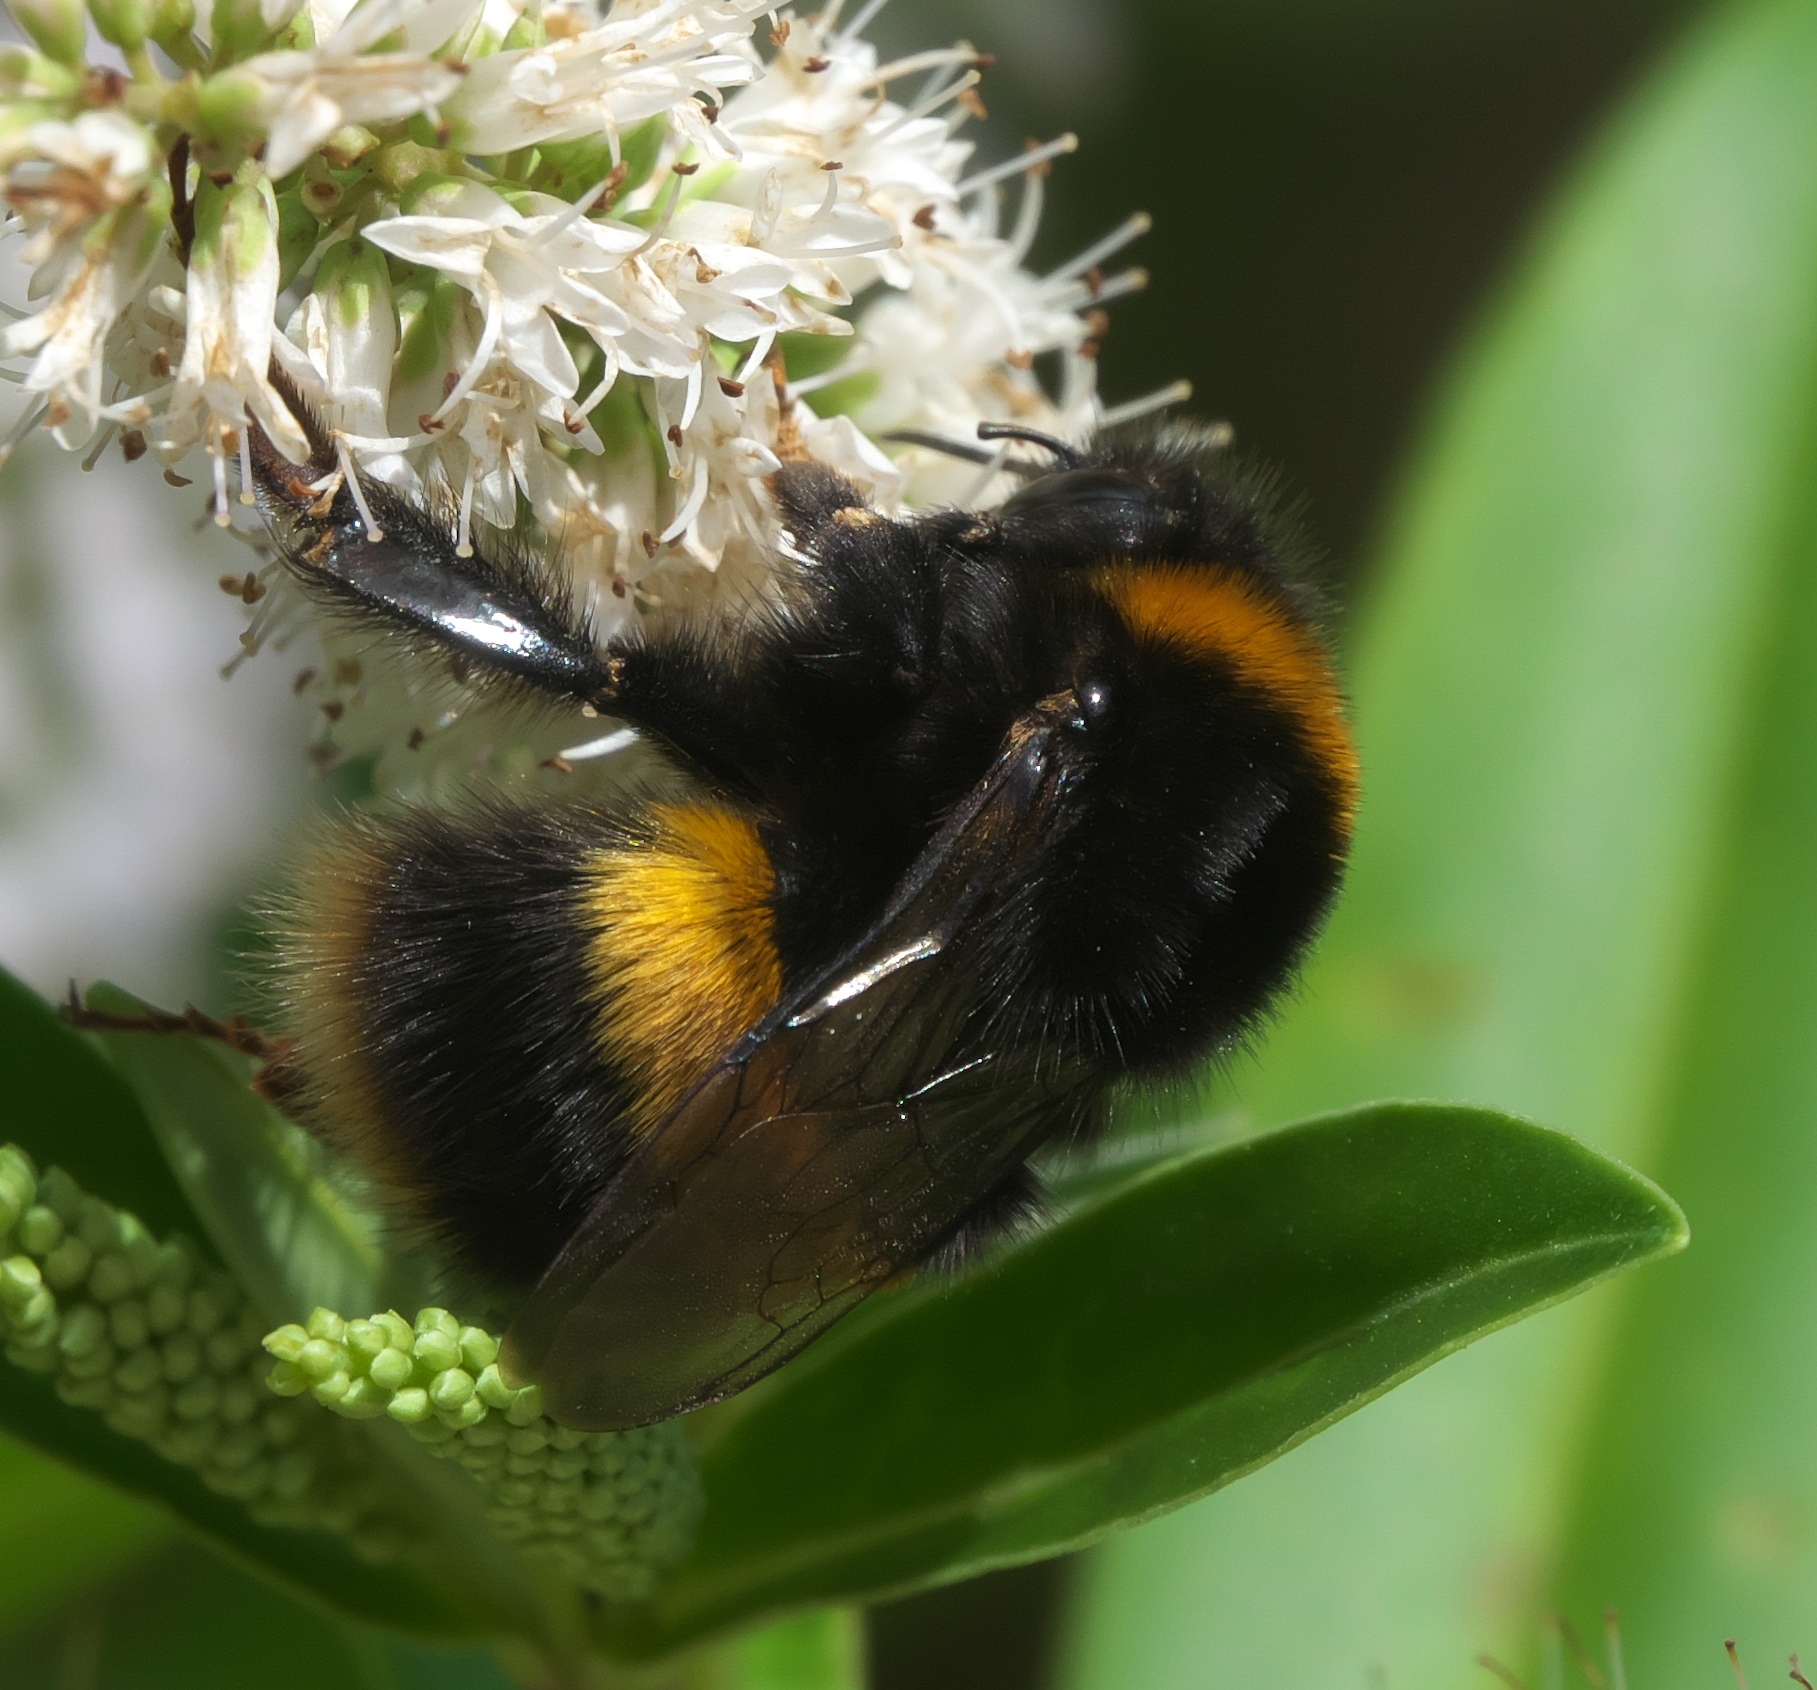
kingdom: Animalia
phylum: Arthropoda
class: Insecta
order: Hymenoptera
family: Apidae
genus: Bombus
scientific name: Bombus terrestris
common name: Buff-tailed bumblebee
